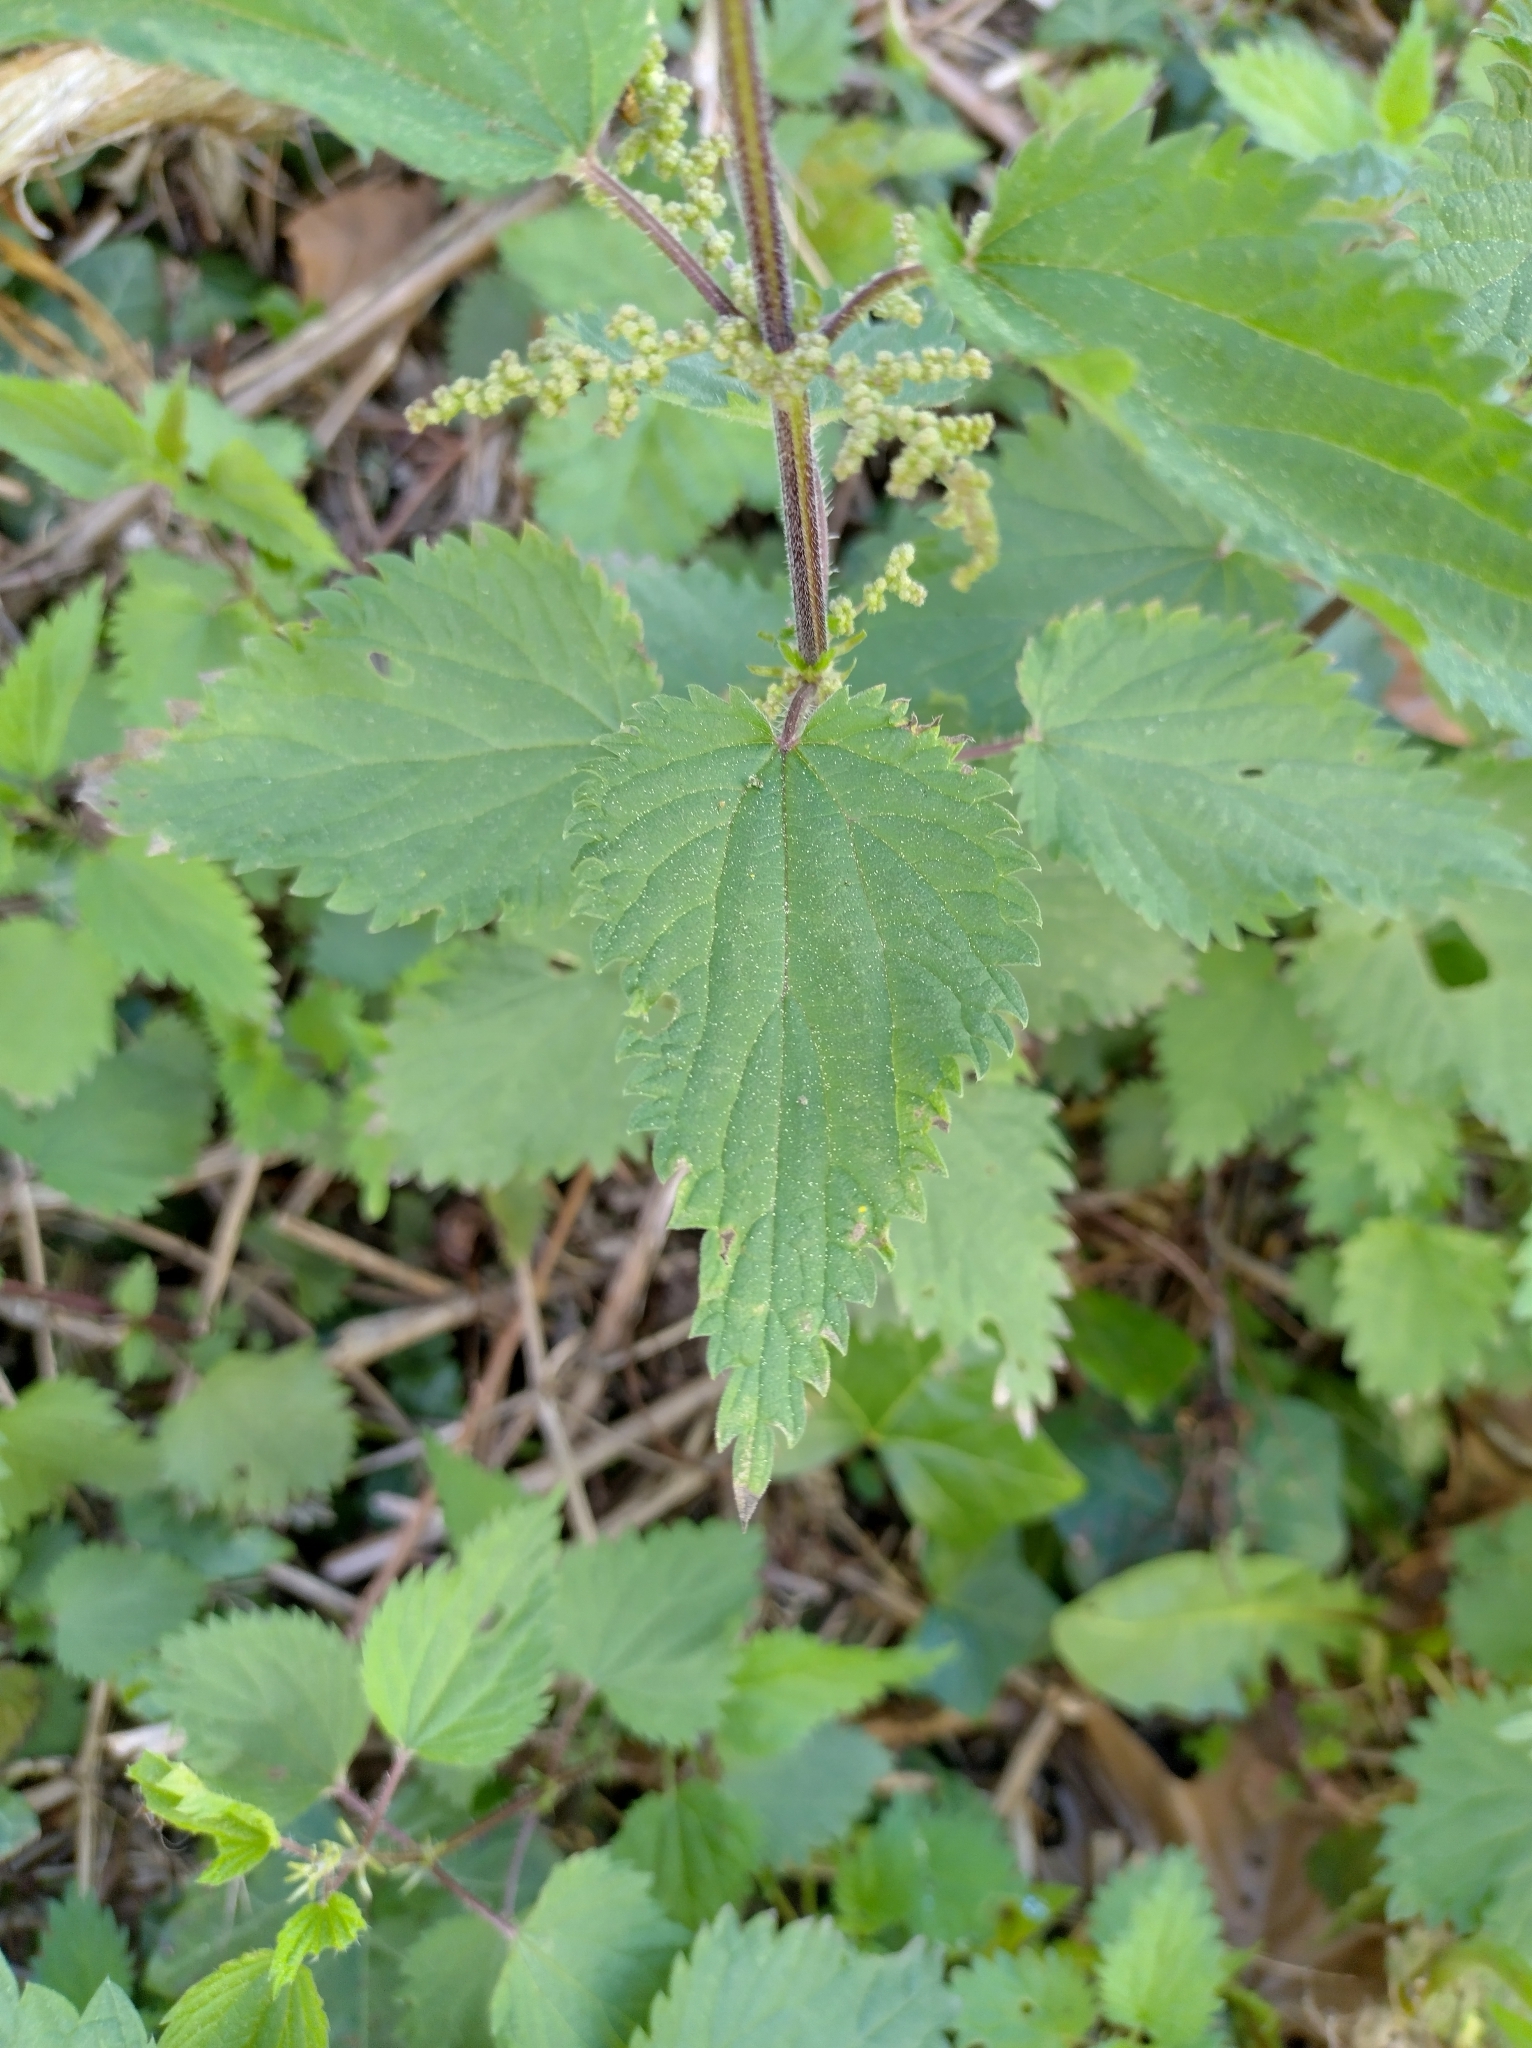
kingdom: Plantae
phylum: Tracheophyta
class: Magnoliopsida
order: Rosales
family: Urticaceae
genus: Urtica
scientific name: Urtica dioica
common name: Common nettle
